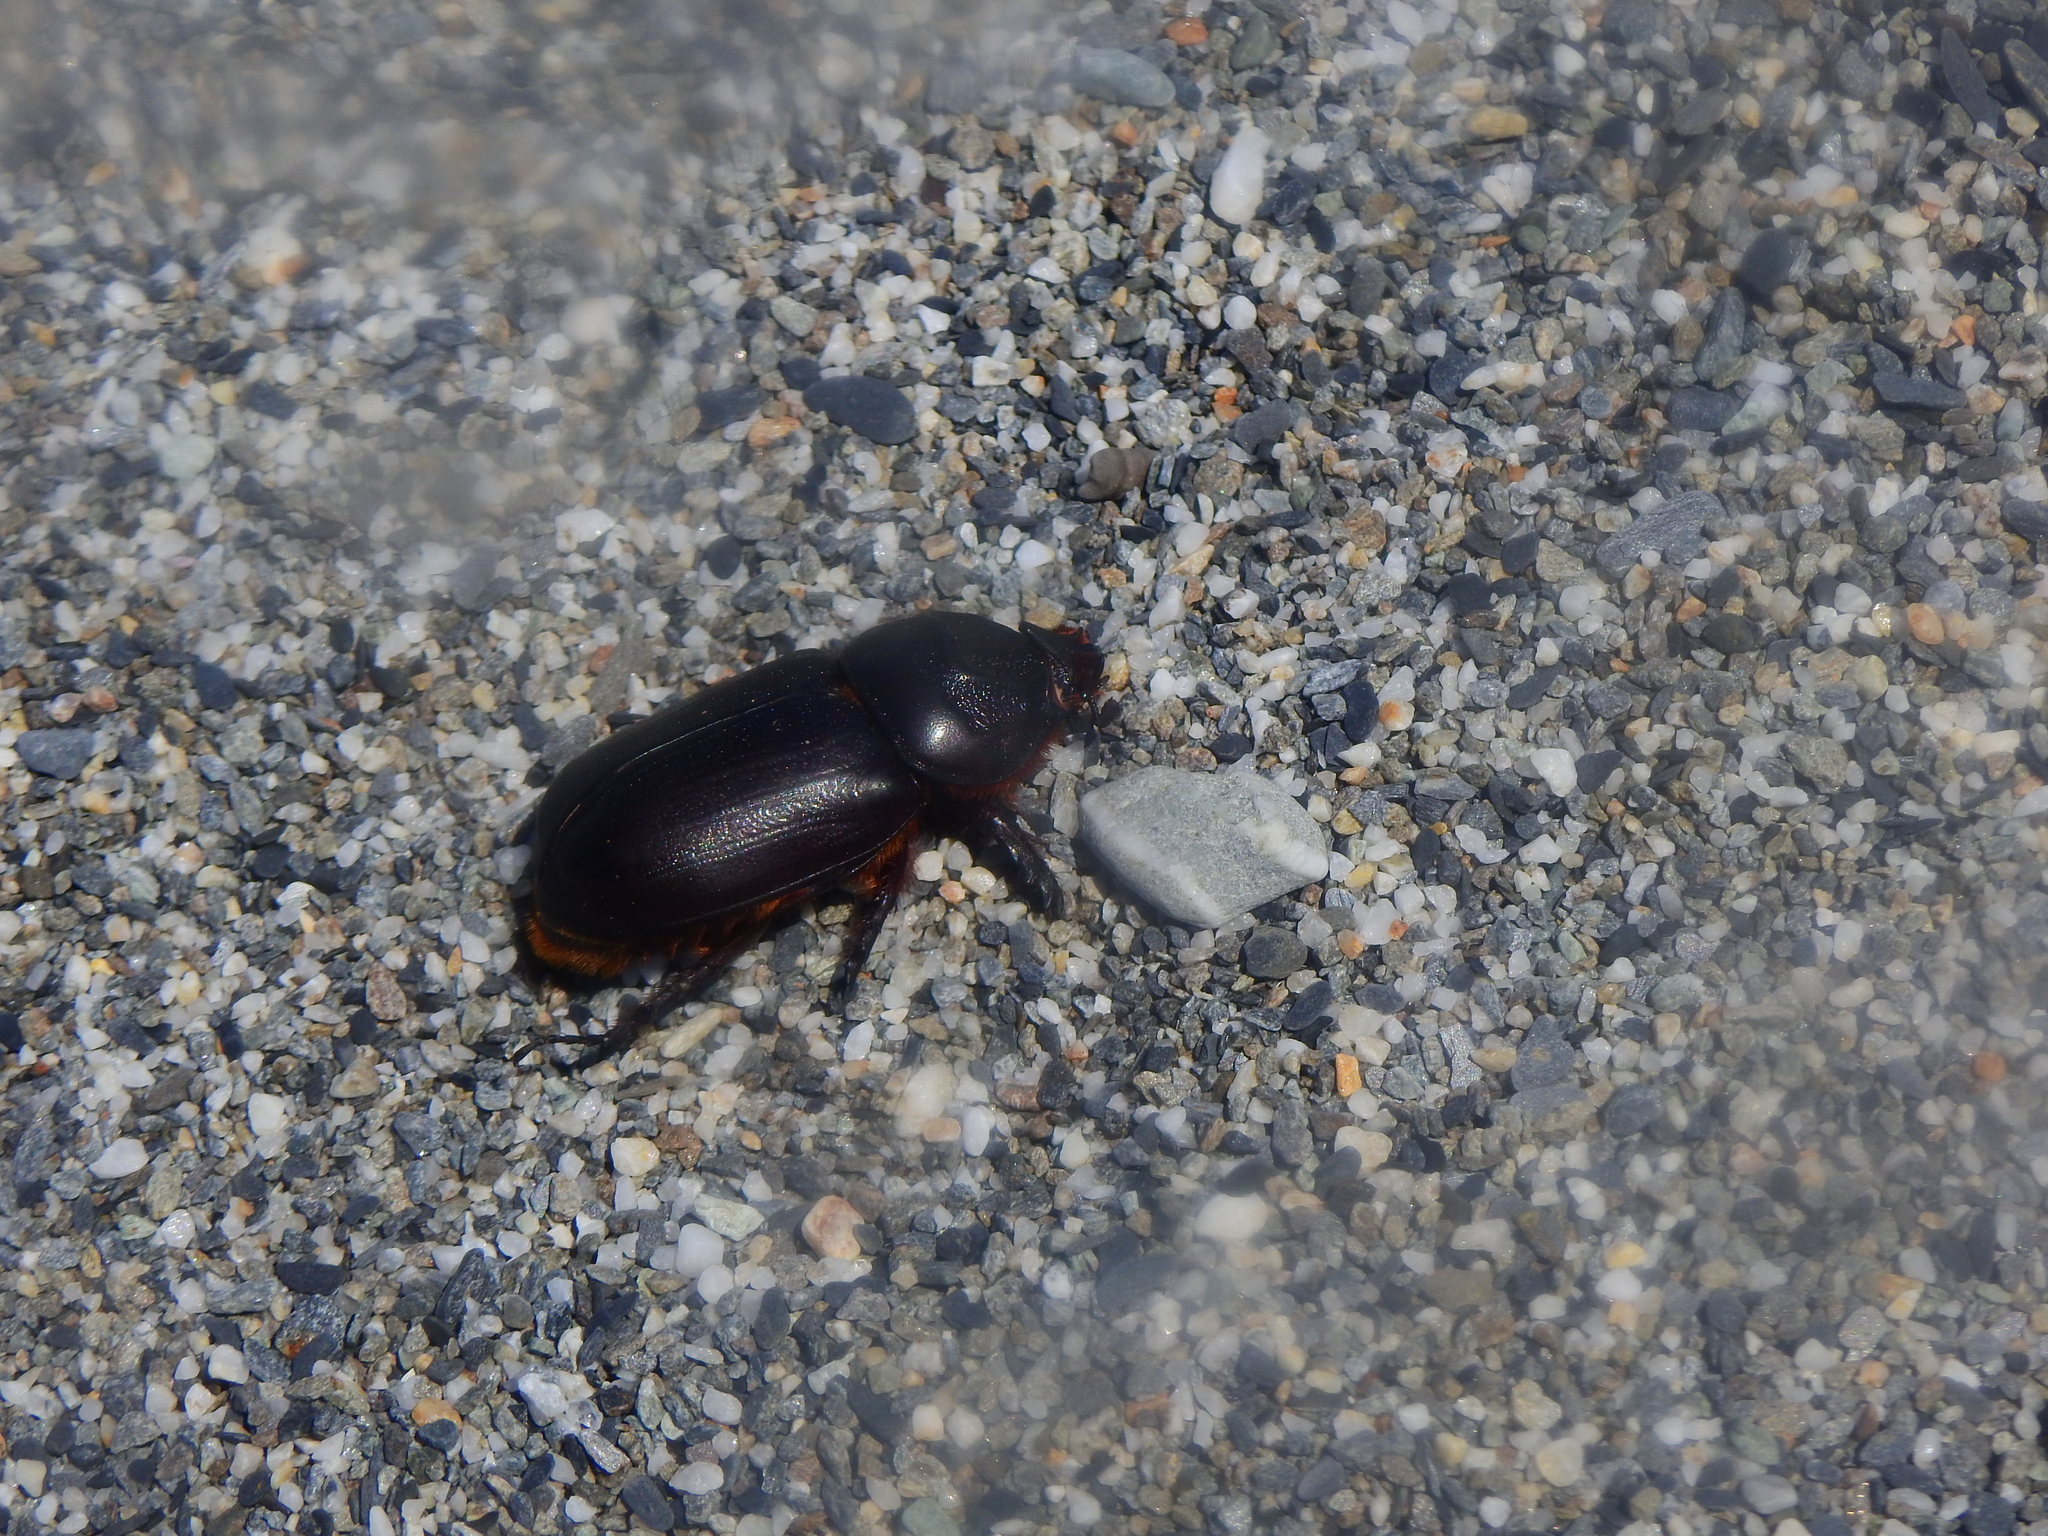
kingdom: Animalia
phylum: Arthropoda
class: Insecta
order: Coleoptera
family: Scarabaeidae
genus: Oryctes
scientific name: Oryctes rhinoceros
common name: Coconut rhinoceros beetle
